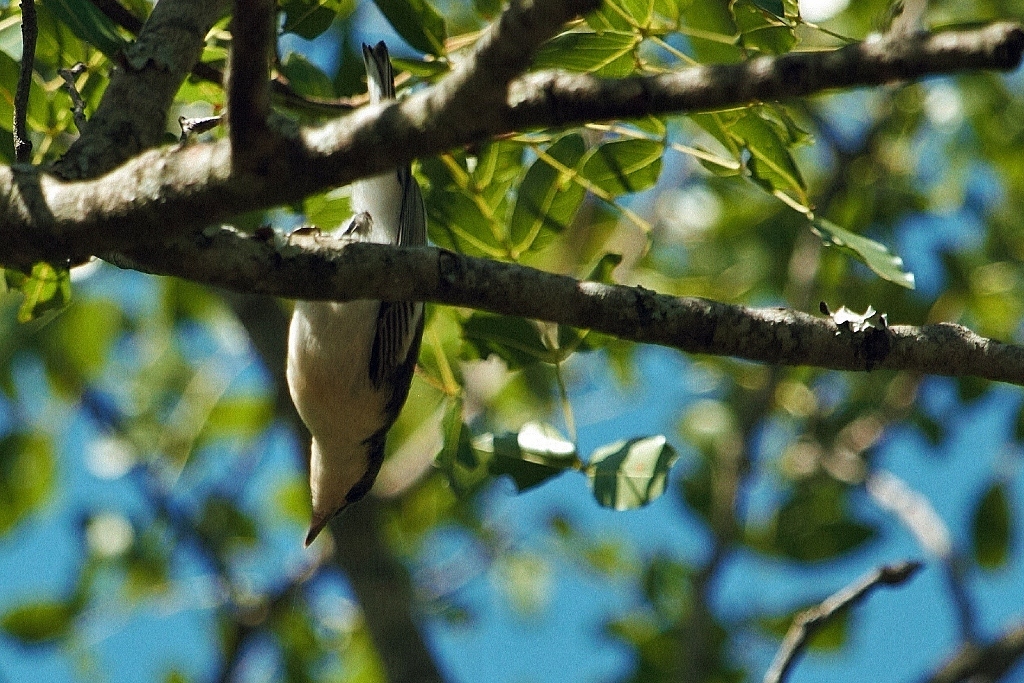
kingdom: Animalia
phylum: Chordata
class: Aves
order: Passeriformes
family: Hyliotidae
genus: Hyliota
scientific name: Hyliota australis
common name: Southern hyliota
